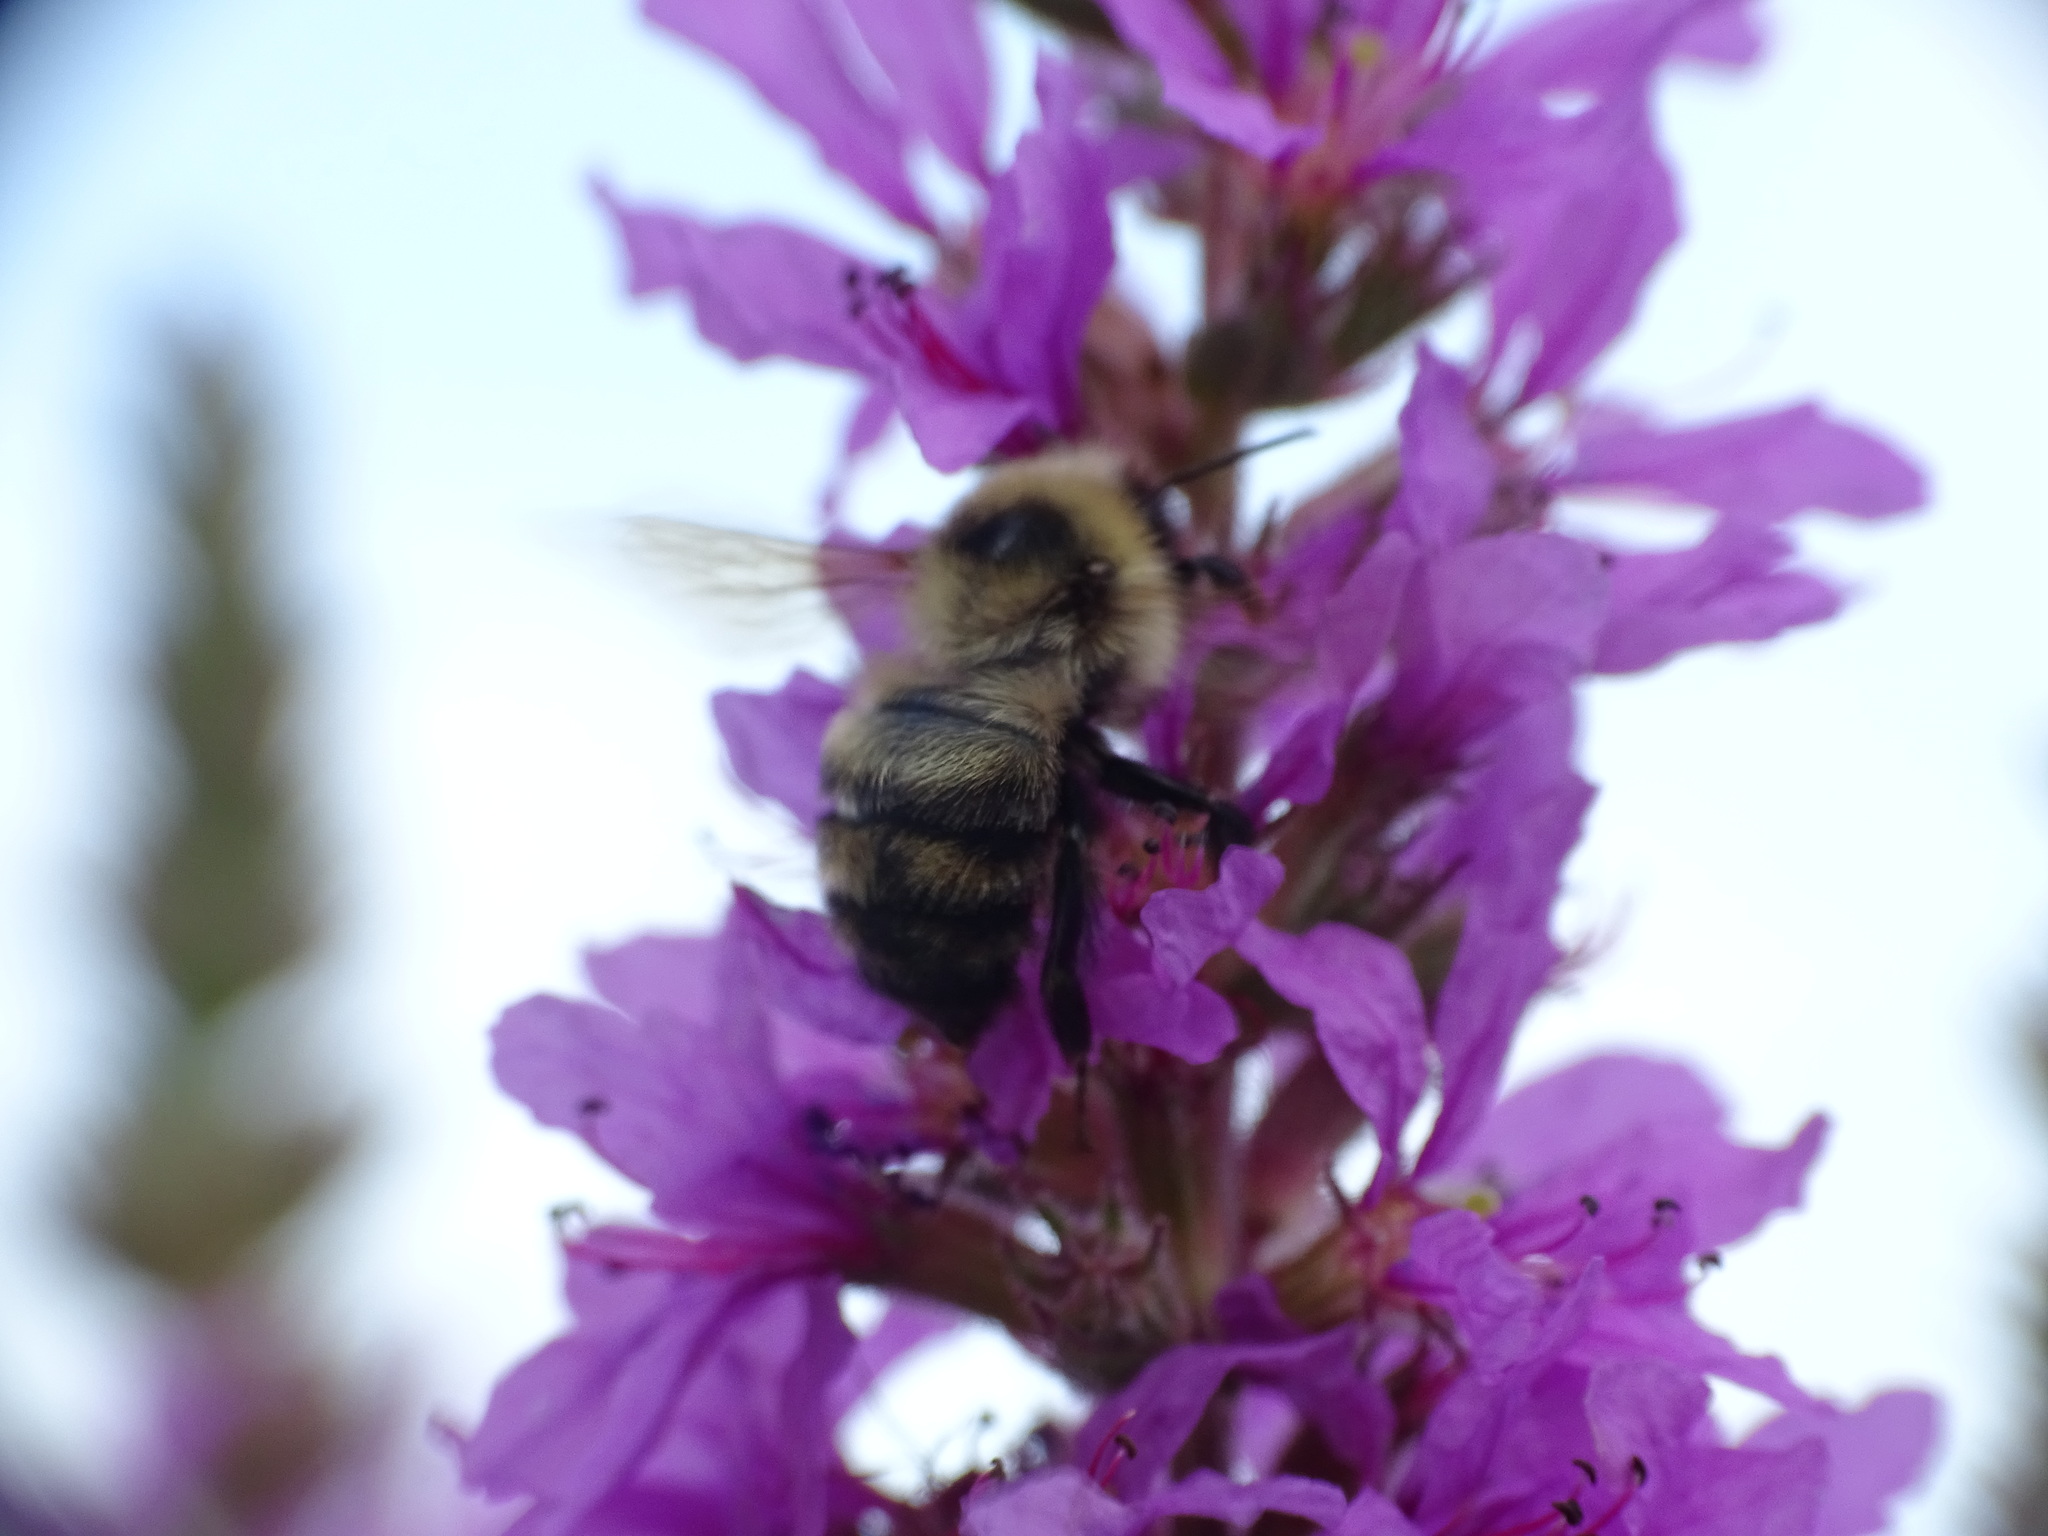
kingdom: Animalia
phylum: Arthropoda
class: Insecta
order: Hymenoptera
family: Apidae
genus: Bombus
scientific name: Bombus rufocinctus
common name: Red-belted bumble bee
